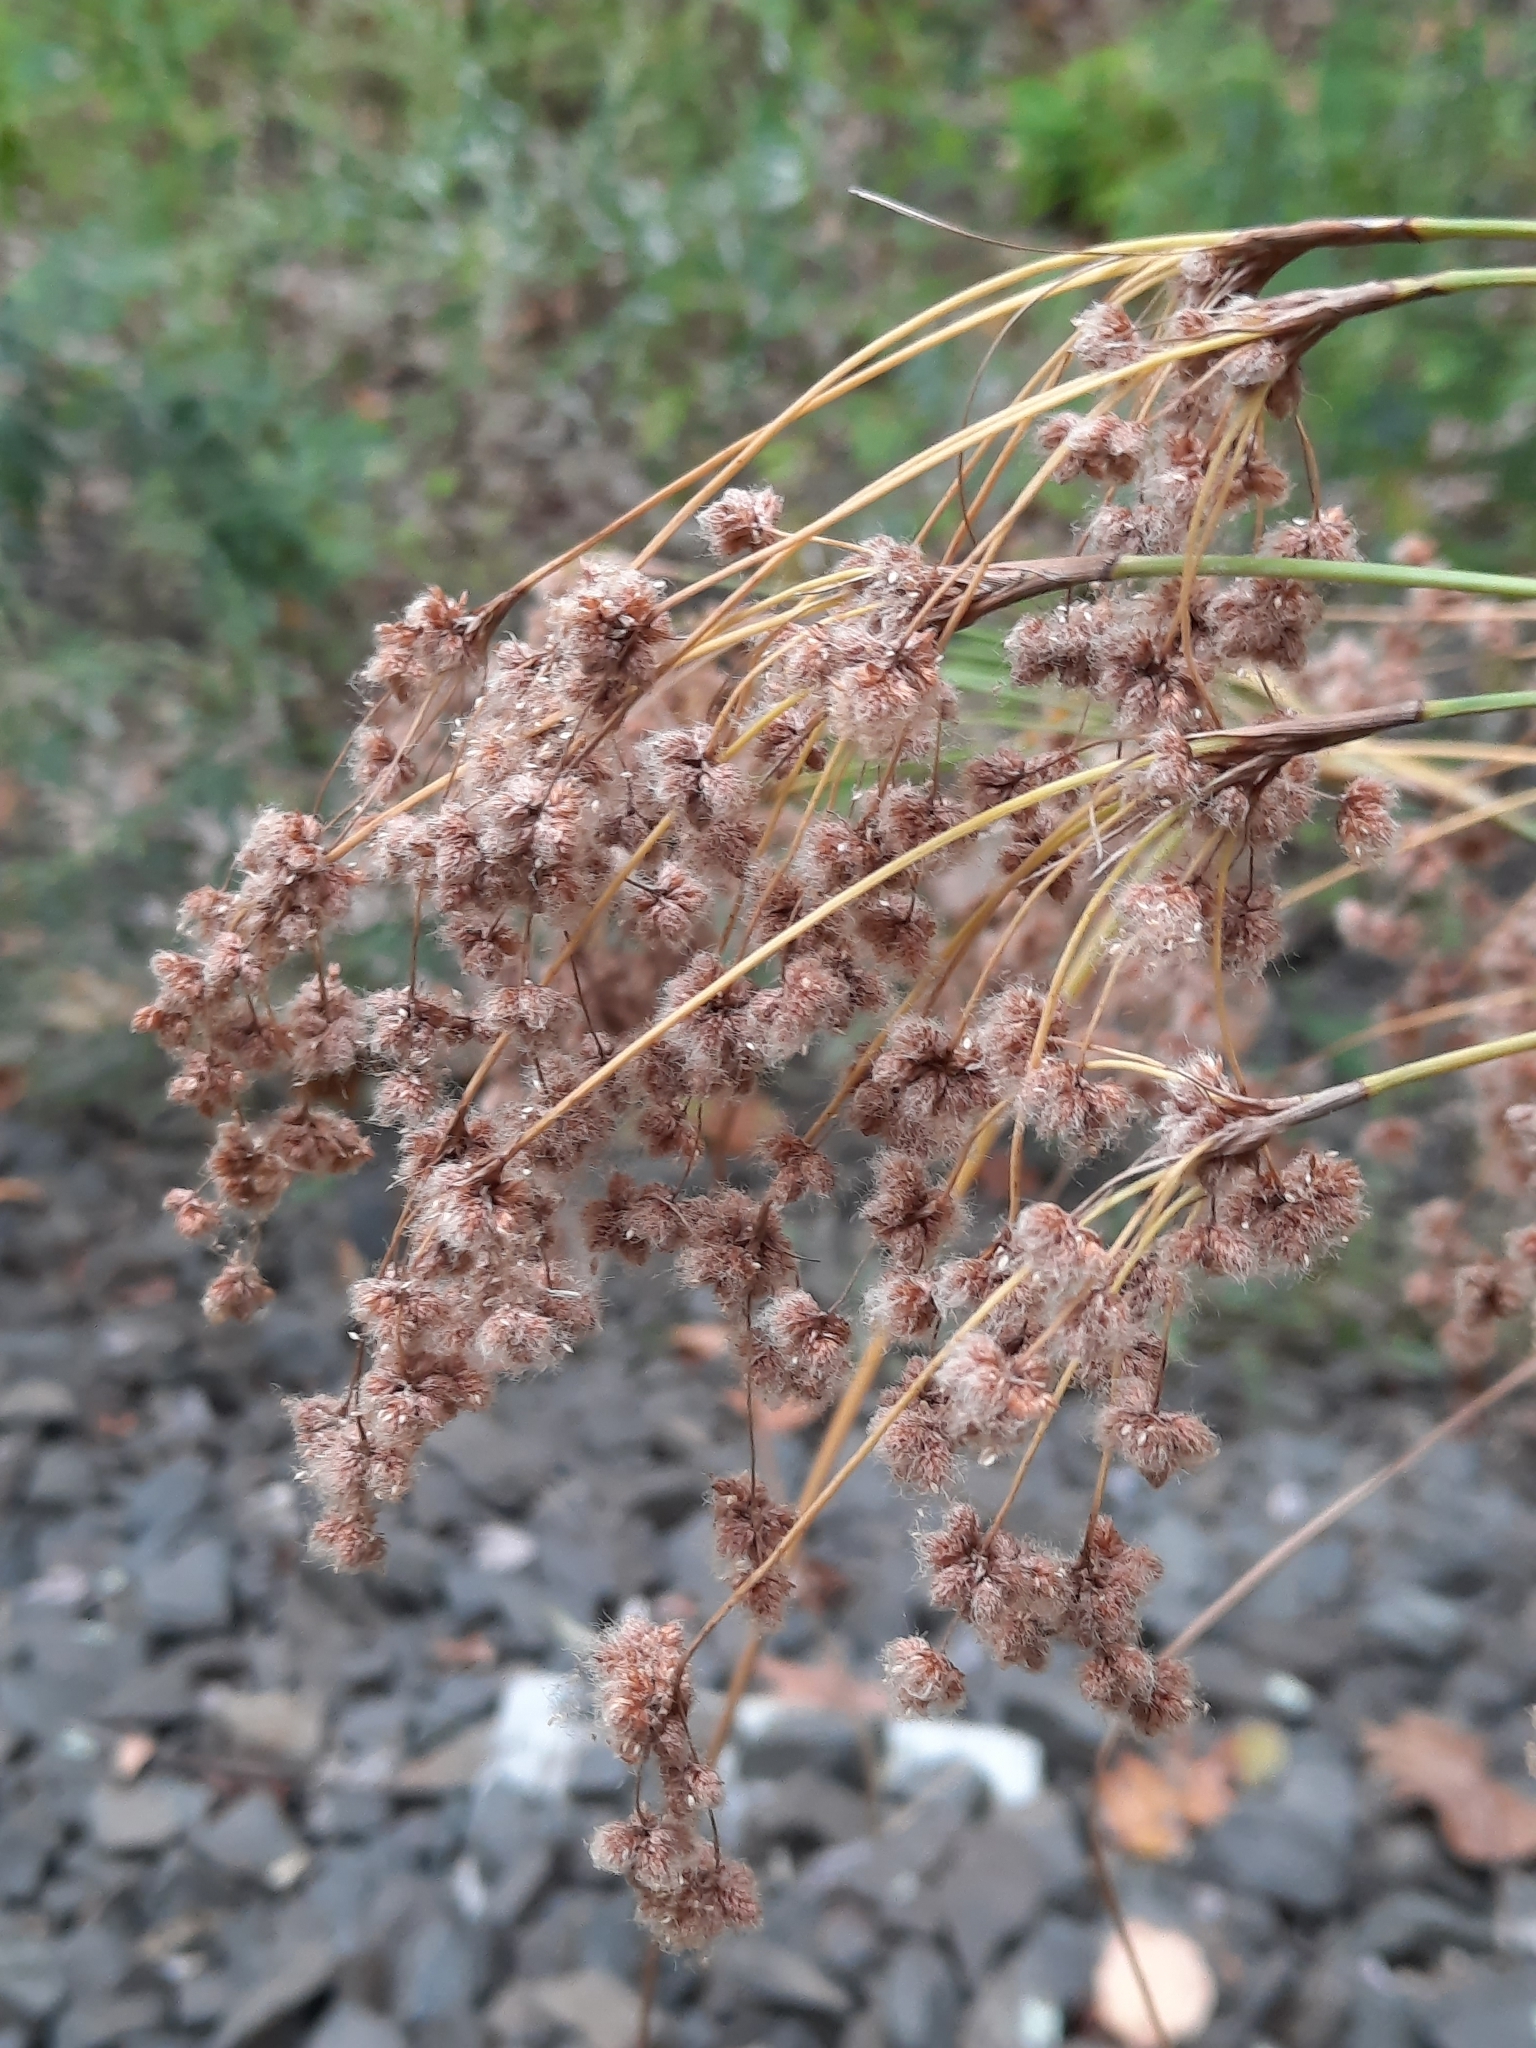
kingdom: Plantae
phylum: Tracheophyta
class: Liliopsida
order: Poales
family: Cyperaceae
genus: Scirpus
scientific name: Scirpus cyperinus
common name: Black-sheathed bulrush
